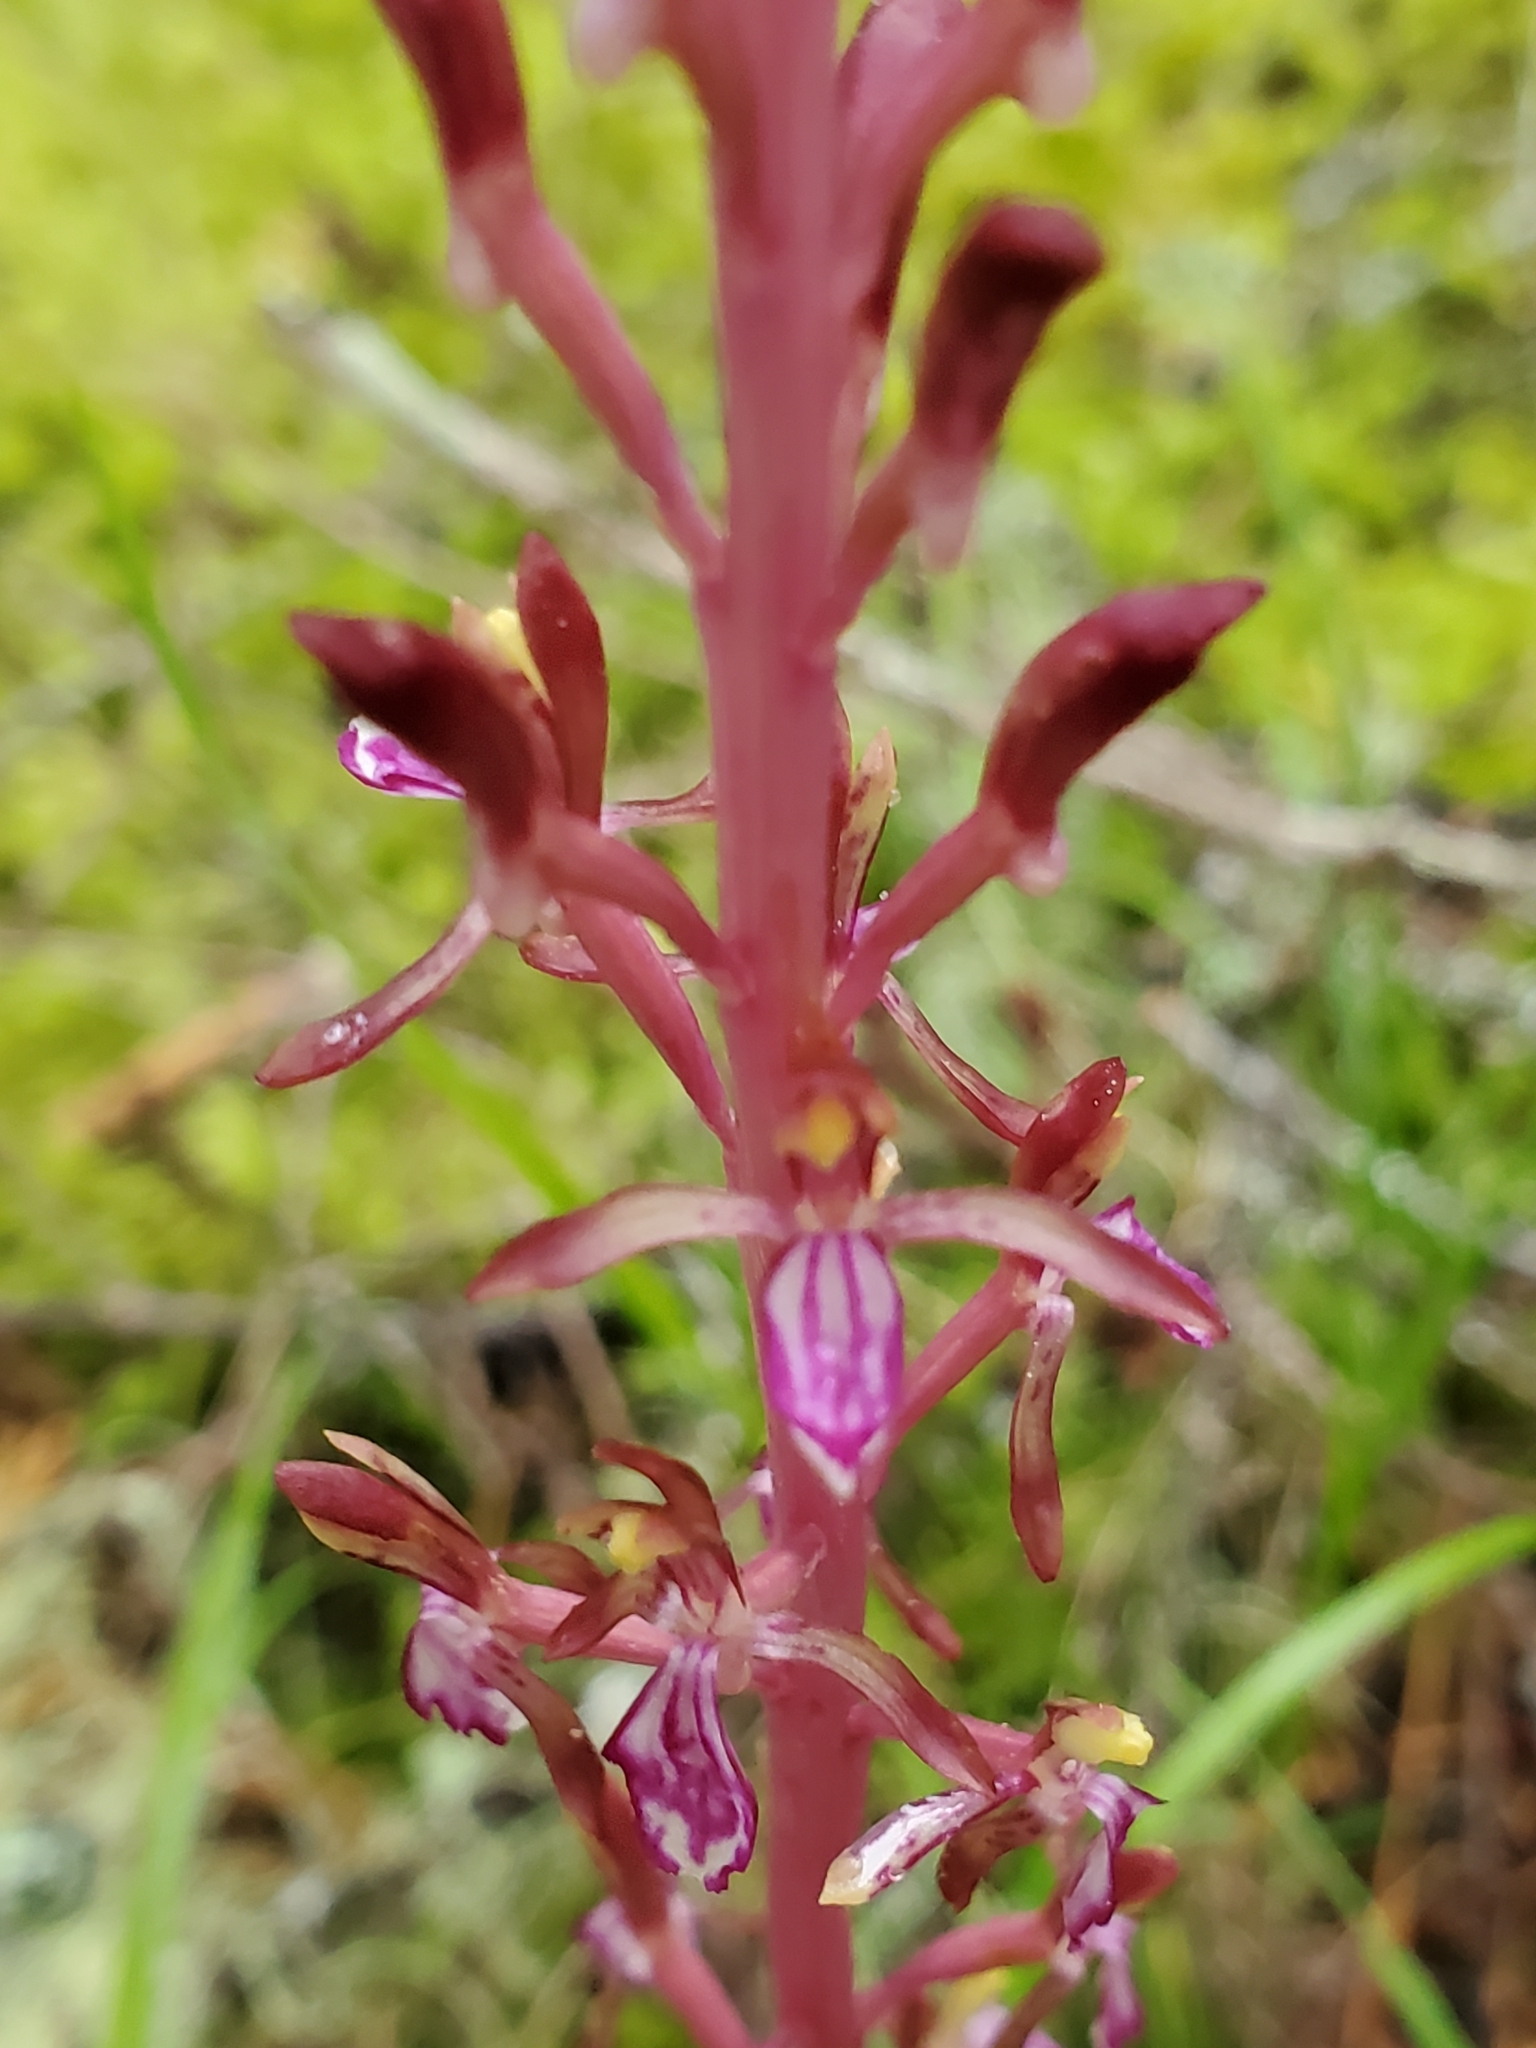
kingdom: Plantae
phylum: Tracheophyta
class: Liliopsida
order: Asparagales
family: Orchidaceae
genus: Corallorhiza
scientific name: Corallorhiza mertensiana
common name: Pacific coralroot
